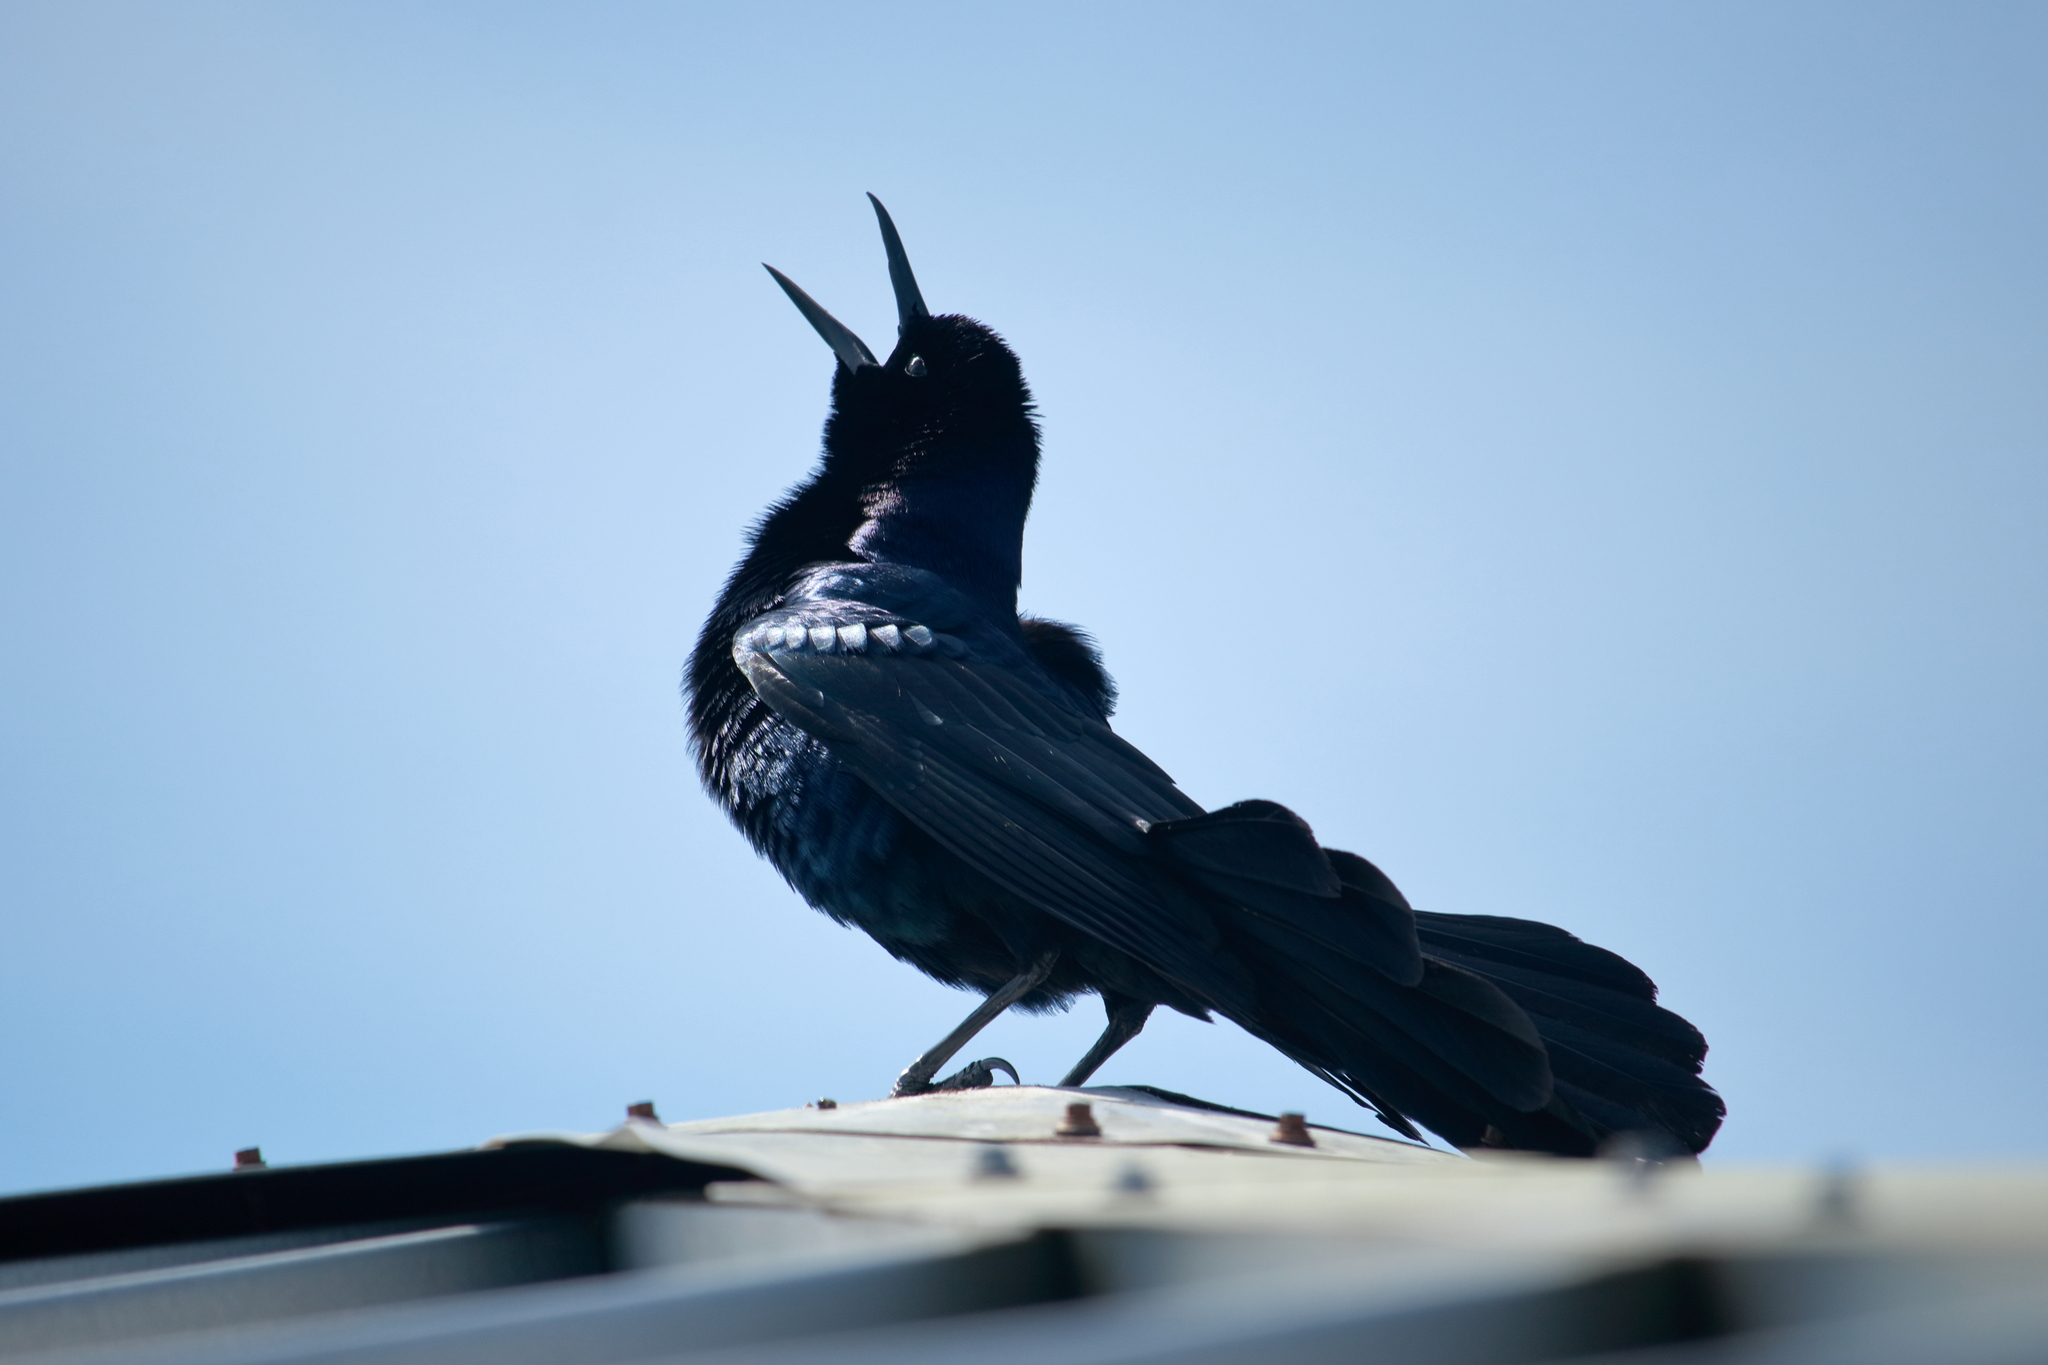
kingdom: Animalia
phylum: Chordata
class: Aves
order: Passeriformes
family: Icteridae
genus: Quiscalus
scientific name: Quiscalus major
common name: Boat-tailed grackle
